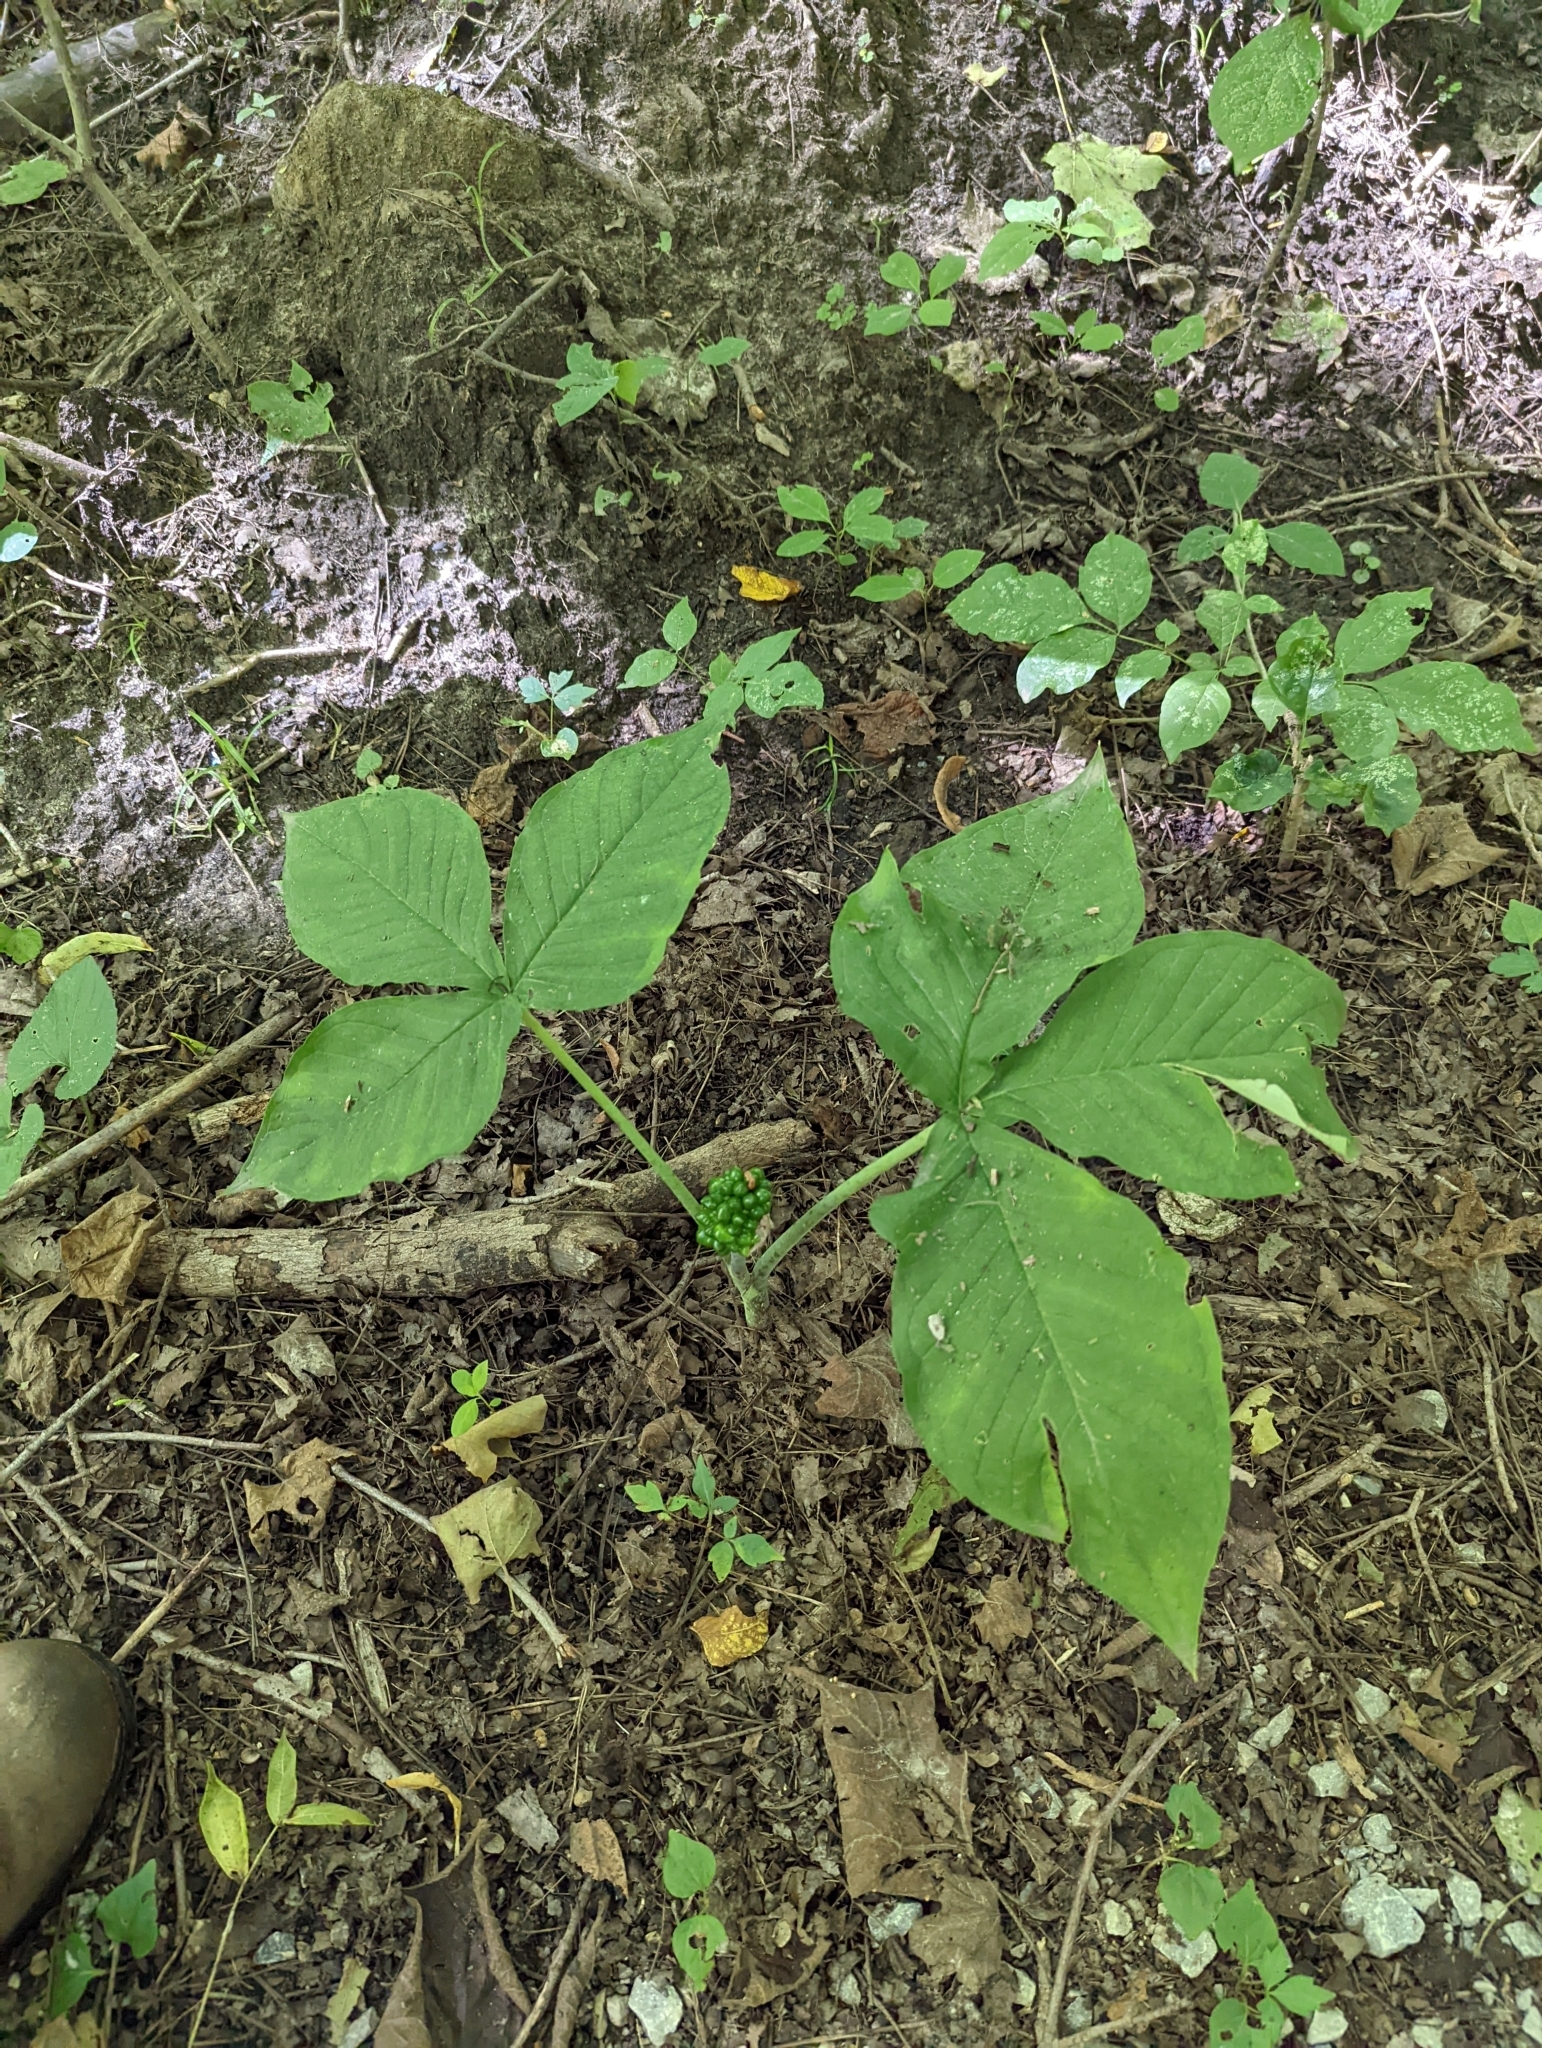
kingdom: Plantae
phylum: Tracheophyta
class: Liliopsida
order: Alismatales
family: Araceae
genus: Arisaema
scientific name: Arisaema triphyllum
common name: Jack-in-the-pulpit
